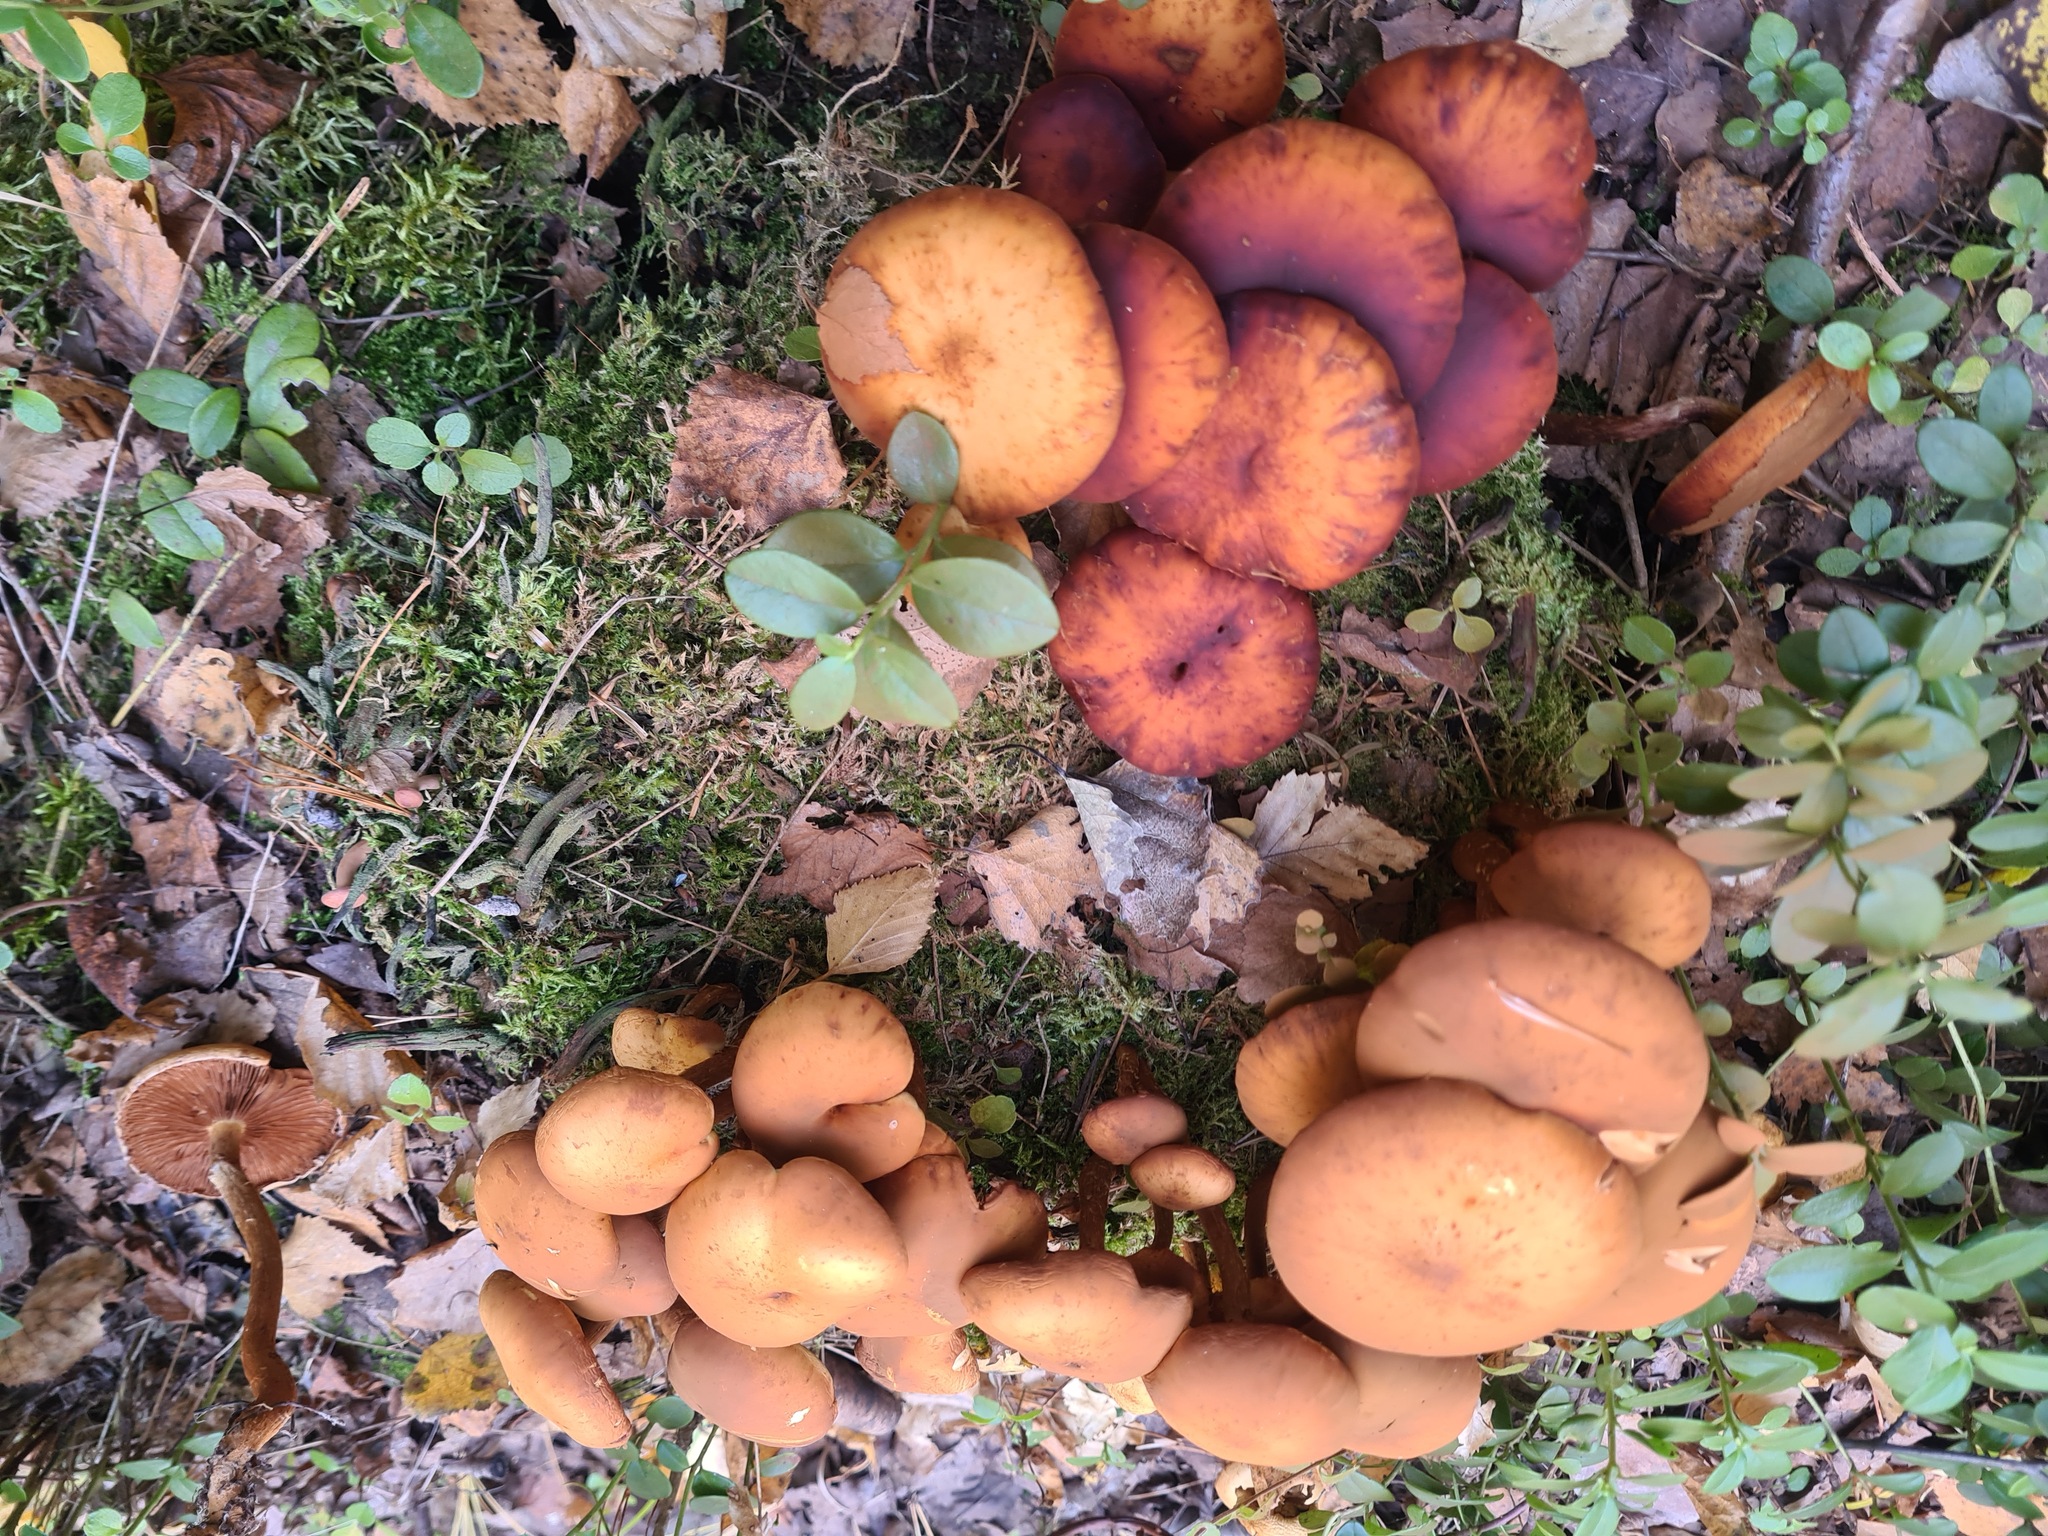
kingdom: Fungi
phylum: Basidiomycota
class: Agaricomycetes
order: Agaricales
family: Strophariaceae
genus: Kuehneromyces
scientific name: Kuehneromyces mutabilis
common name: Sheathed woodtuft
